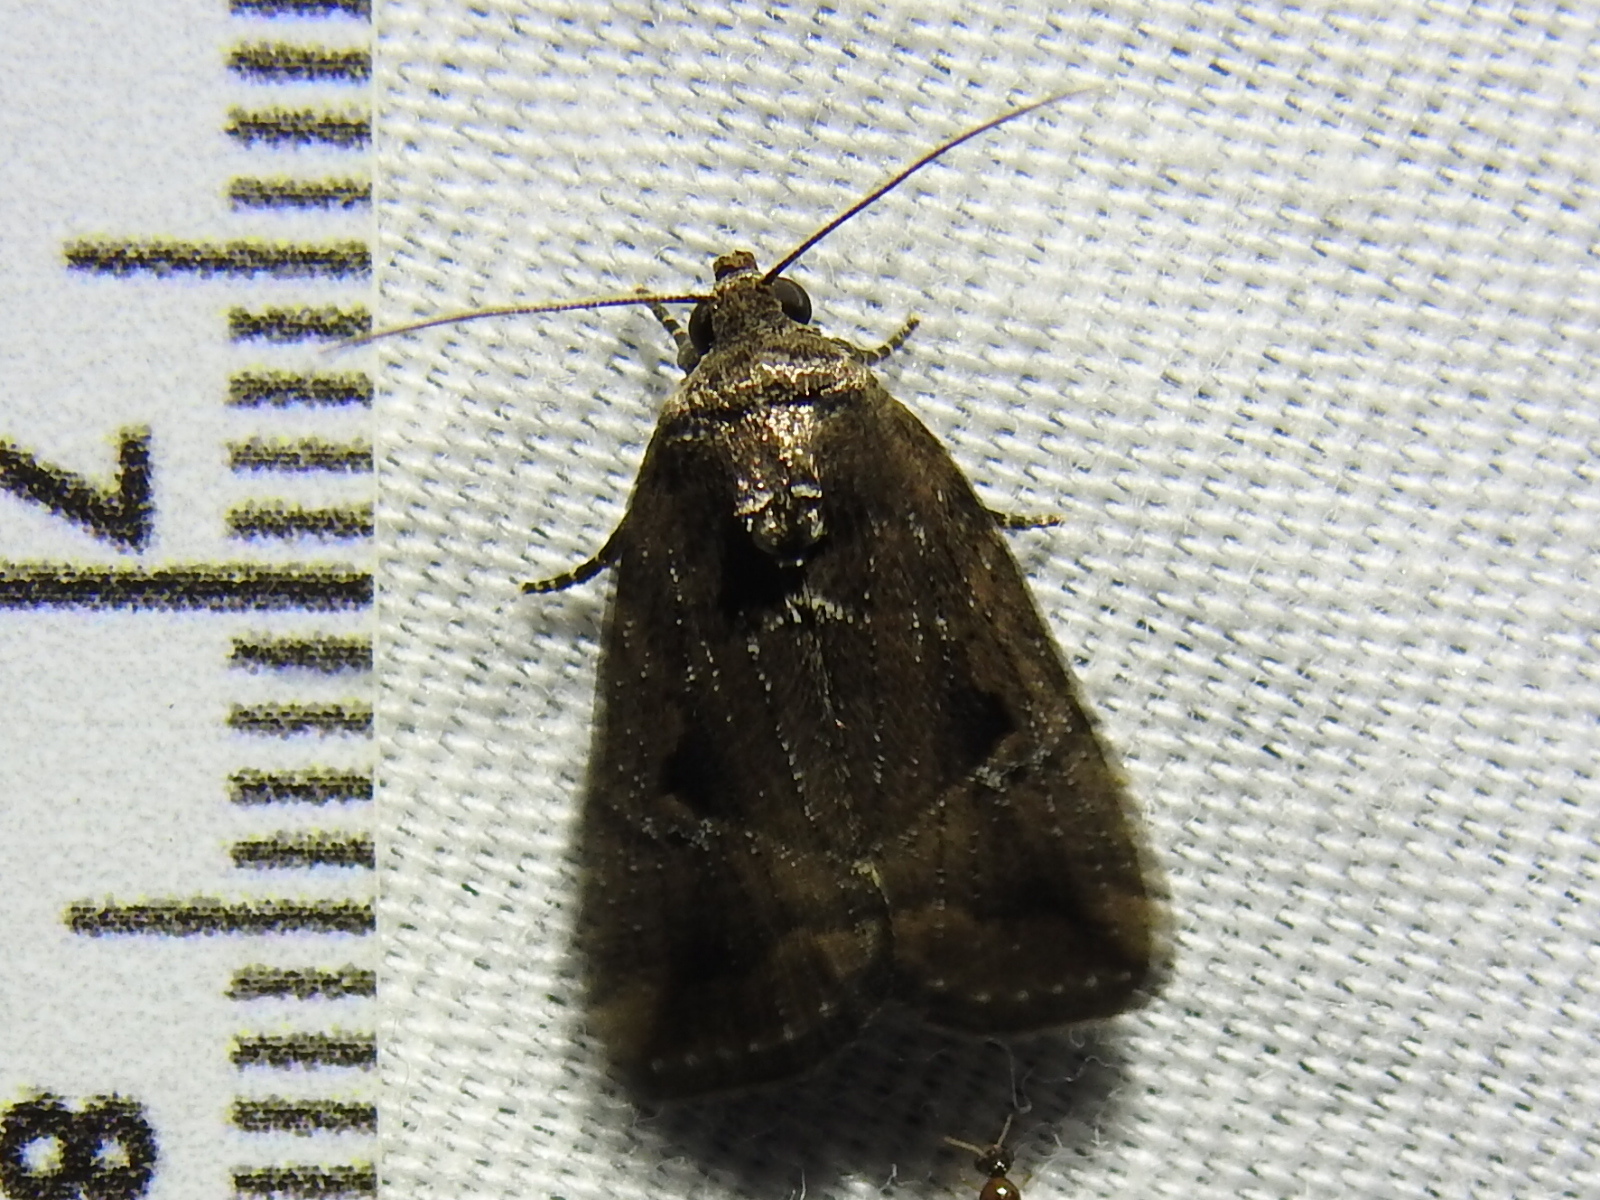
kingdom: Animalia
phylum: Arthropoda
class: Insecta
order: Lepidoptera
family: Noctuidae
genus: Elaphria
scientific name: Elaphria nucicolora
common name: Sugarcane midget moth
